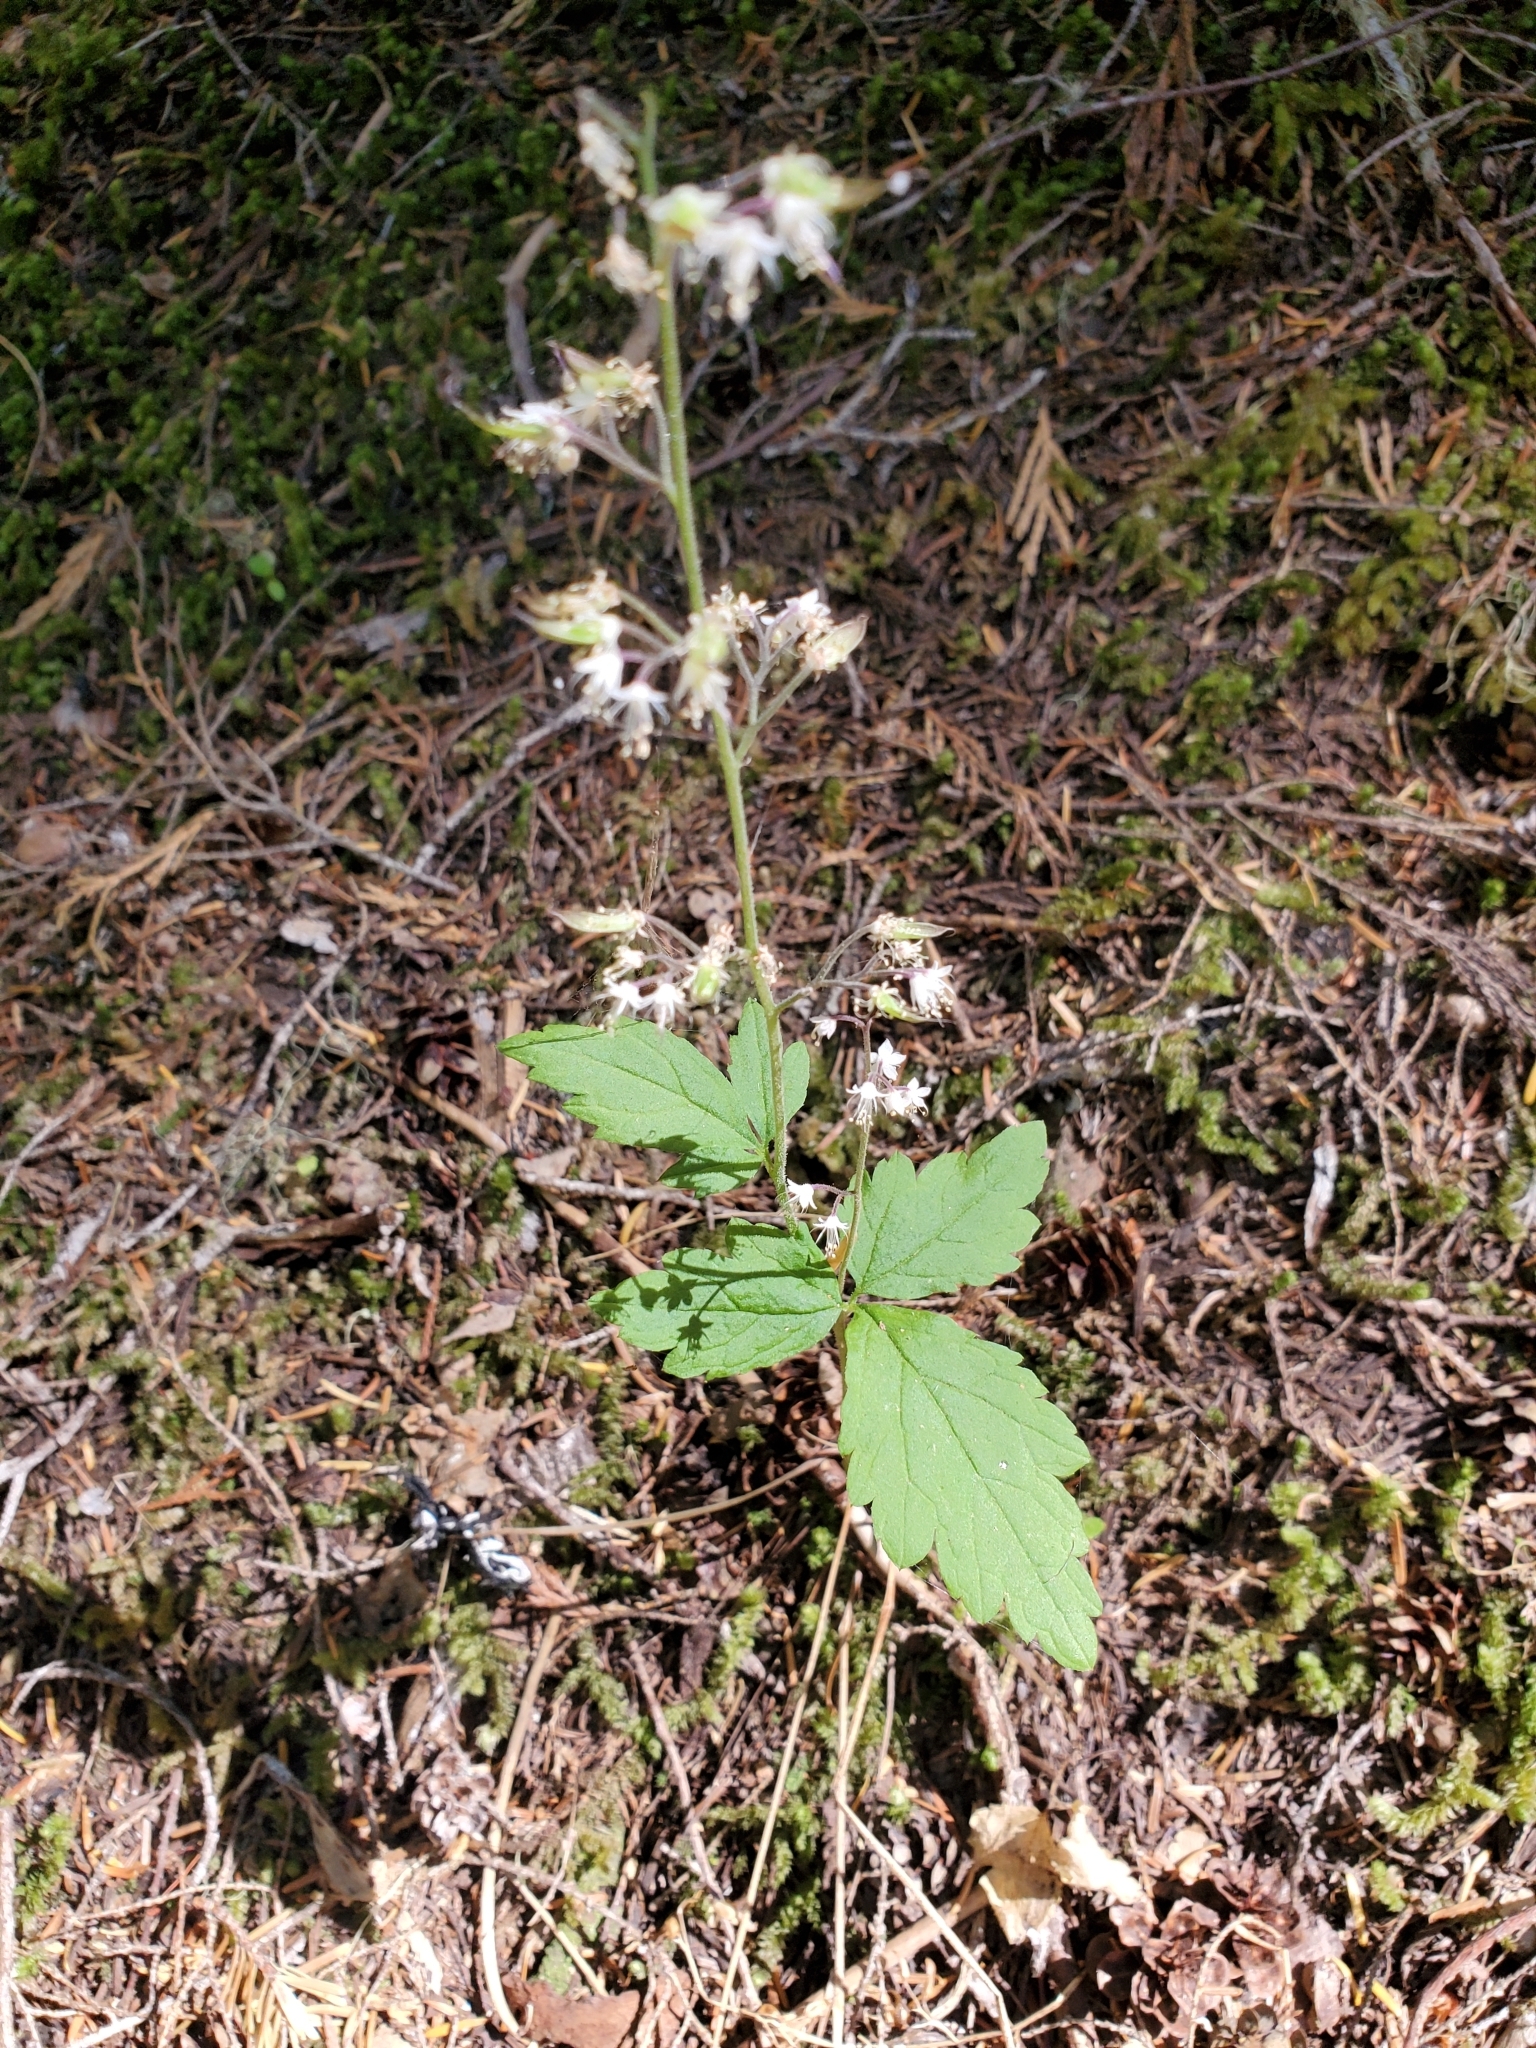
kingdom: Plantae
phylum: Tracheophyta
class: Magnoliopsida
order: Saxifragales
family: Saxifragaceae
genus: Tiarella
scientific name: Tiarella trifoliata
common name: Sugar-scoop
